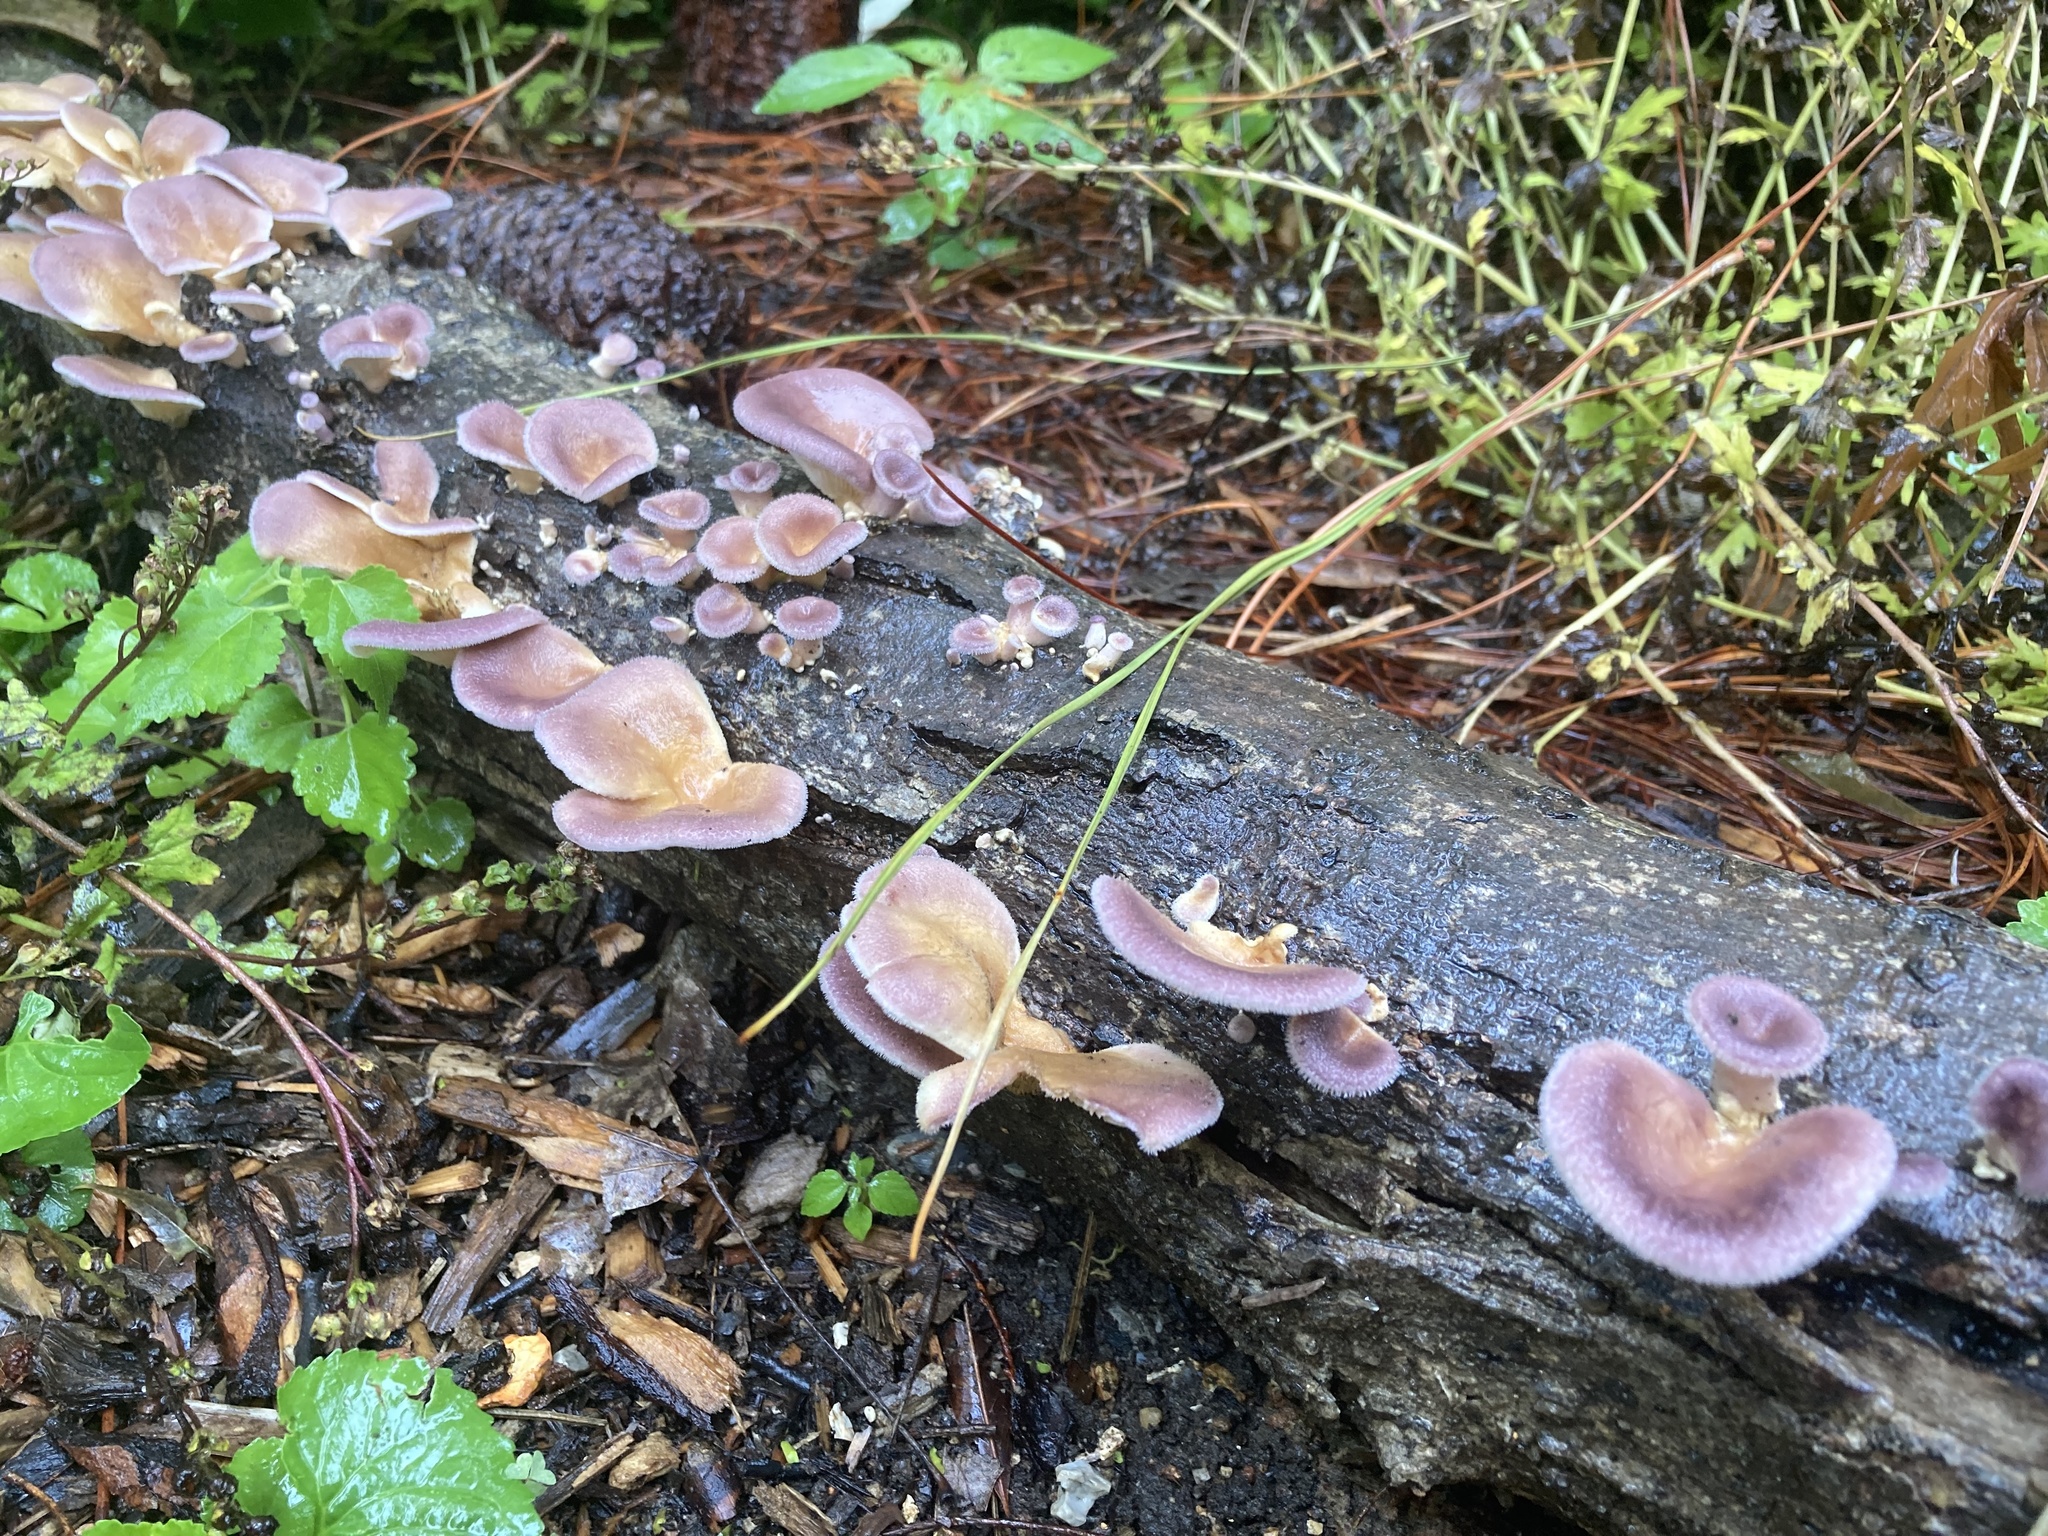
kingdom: Fungi
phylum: Basidiomycota
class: Agaricomycetes
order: Polyporales
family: Panaceae
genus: Panus
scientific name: Panus neostrigosus
